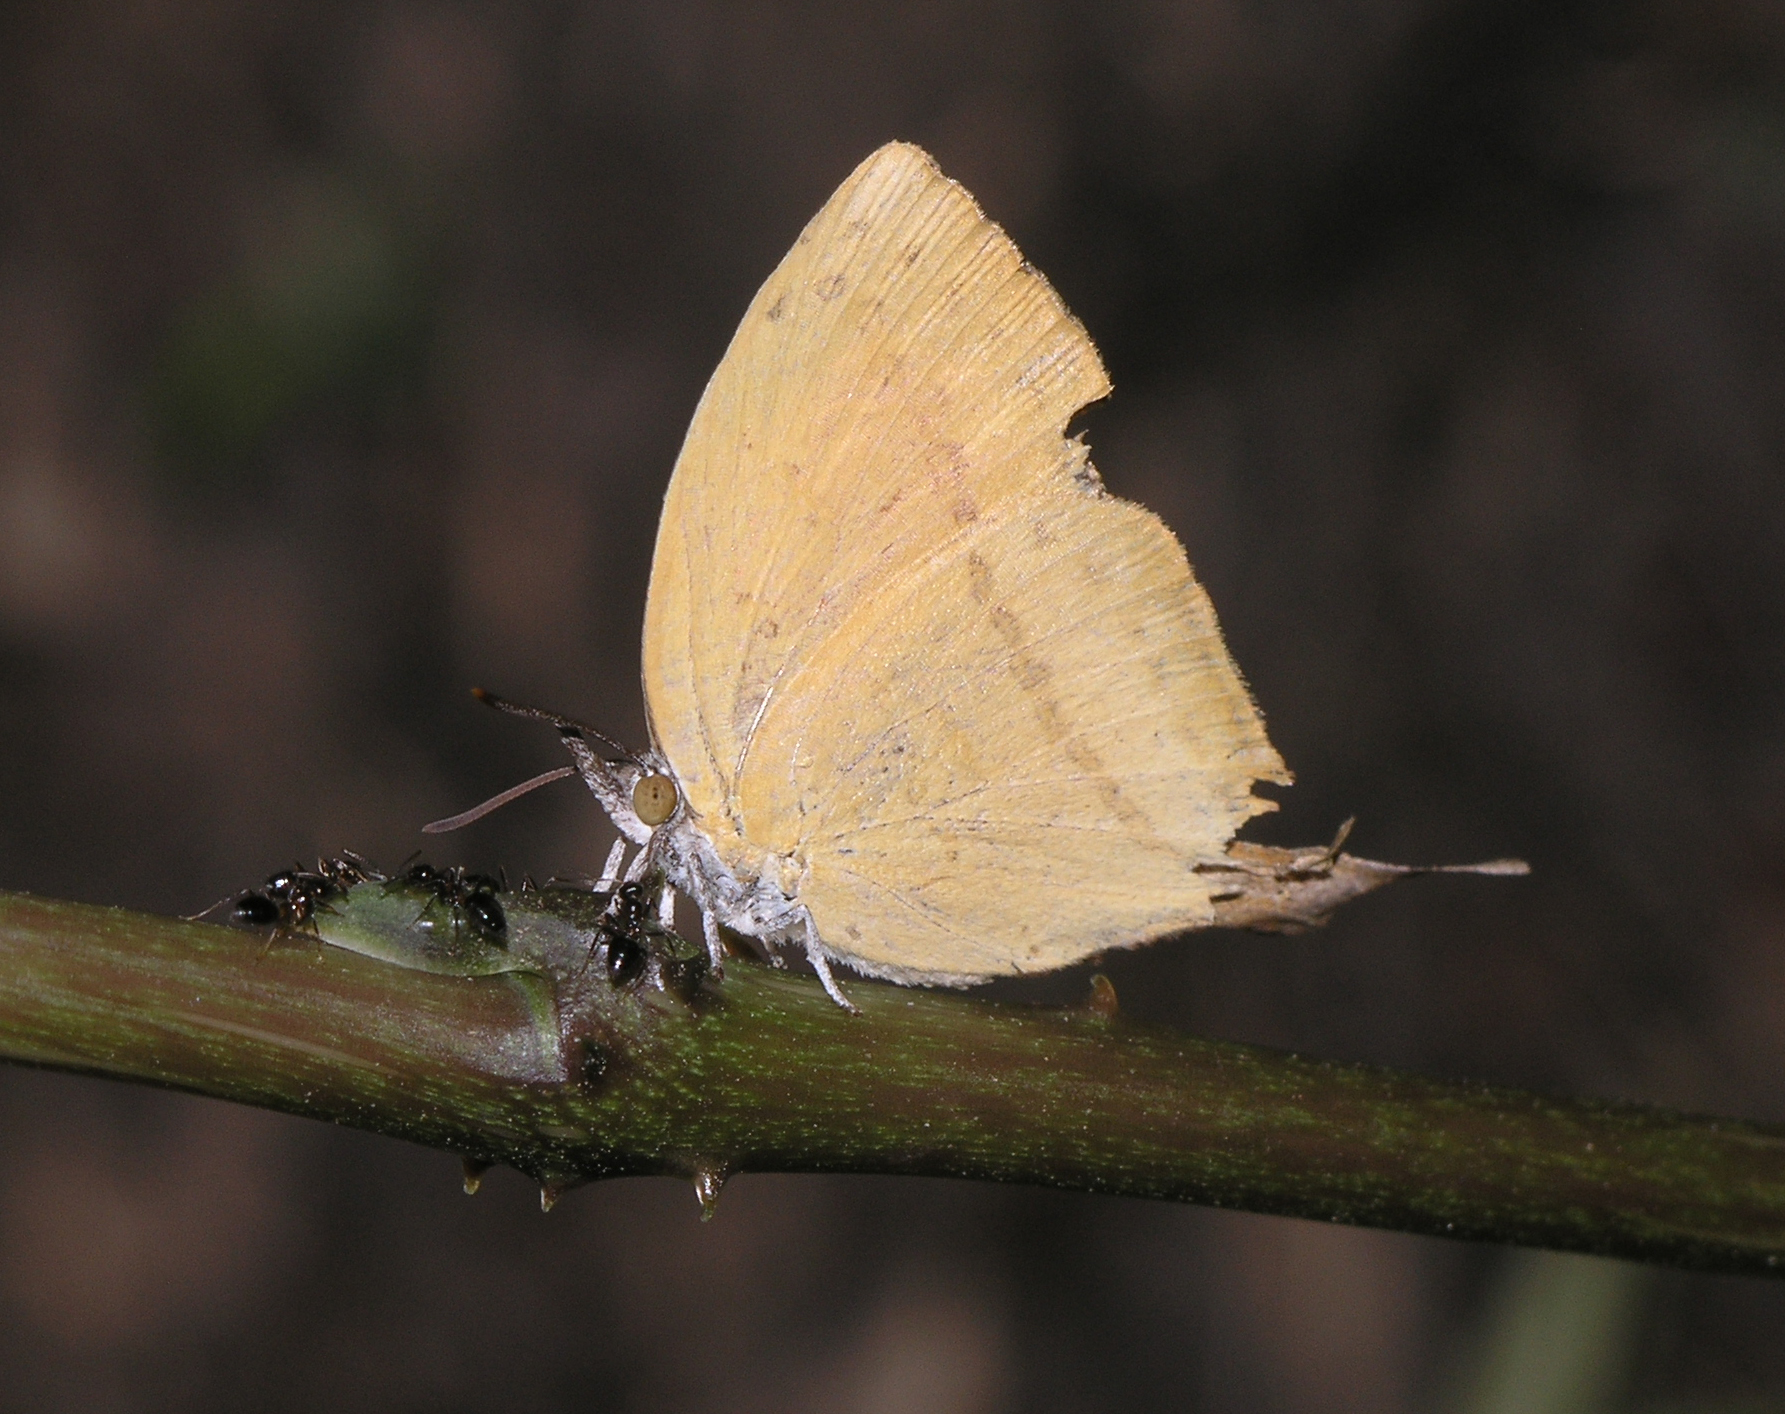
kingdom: Animalia
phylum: Arthropoda
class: Insecta
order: Lepidoptera
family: Lycaenidae
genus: Loxura
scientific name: Loxura atymnus
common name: Common yamfly
